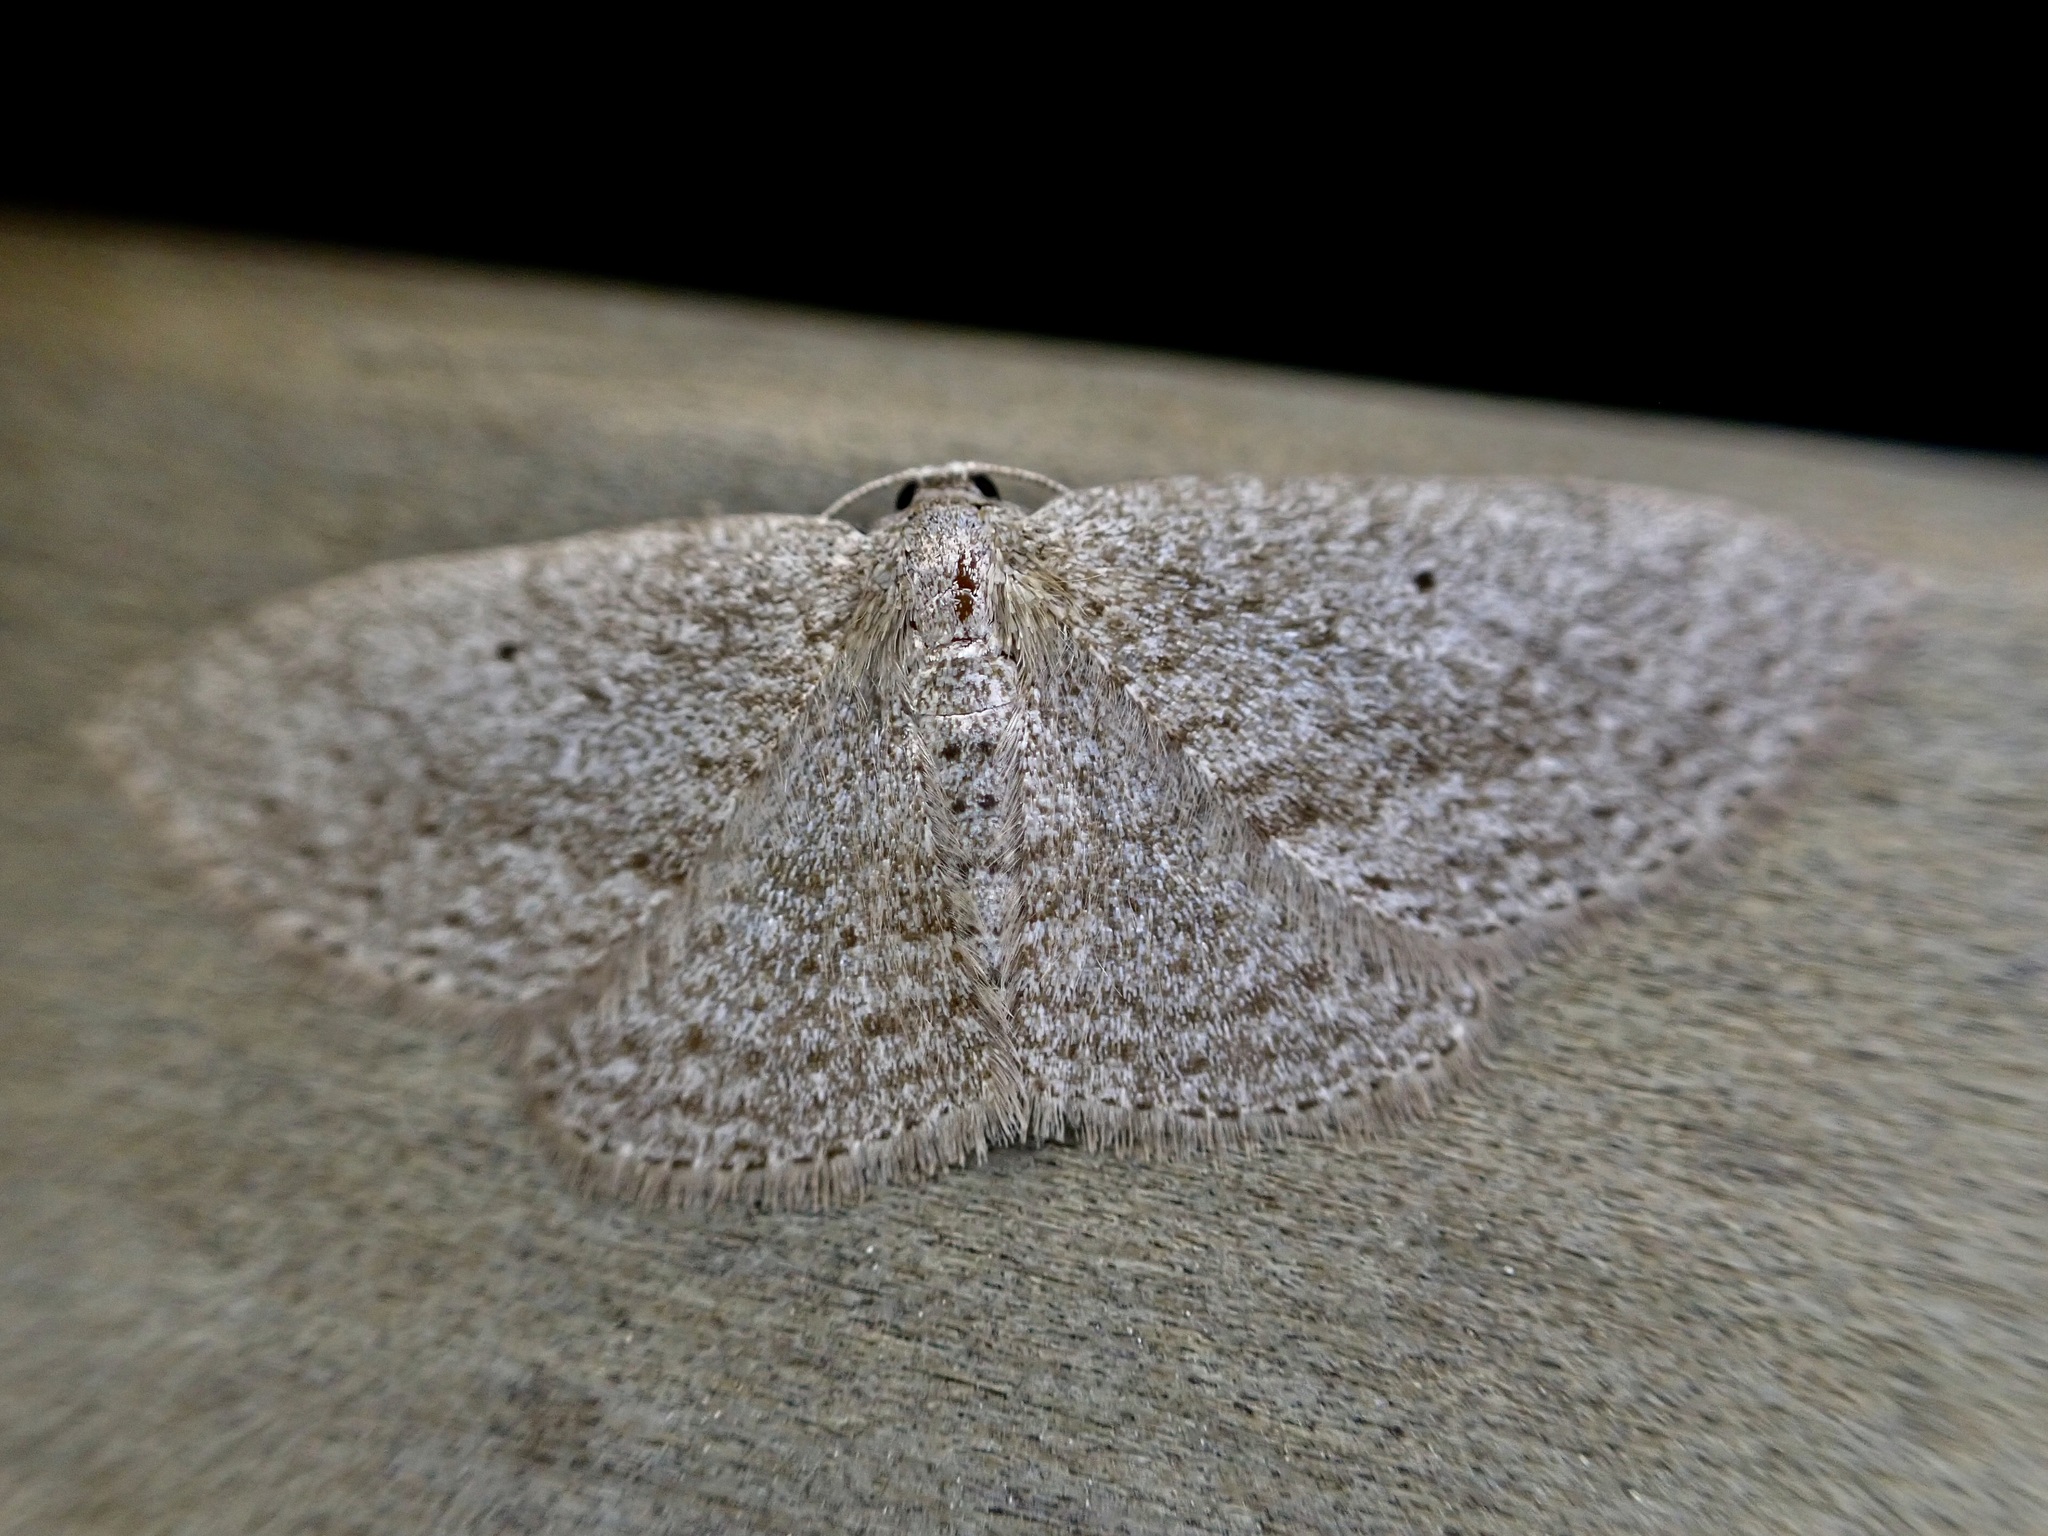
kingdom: Animalia
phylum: Arthropoda
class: Insecta
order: Lepidoptera
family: Geometridae
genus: Poecilasthena
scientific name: Poecilasthena schistaria
